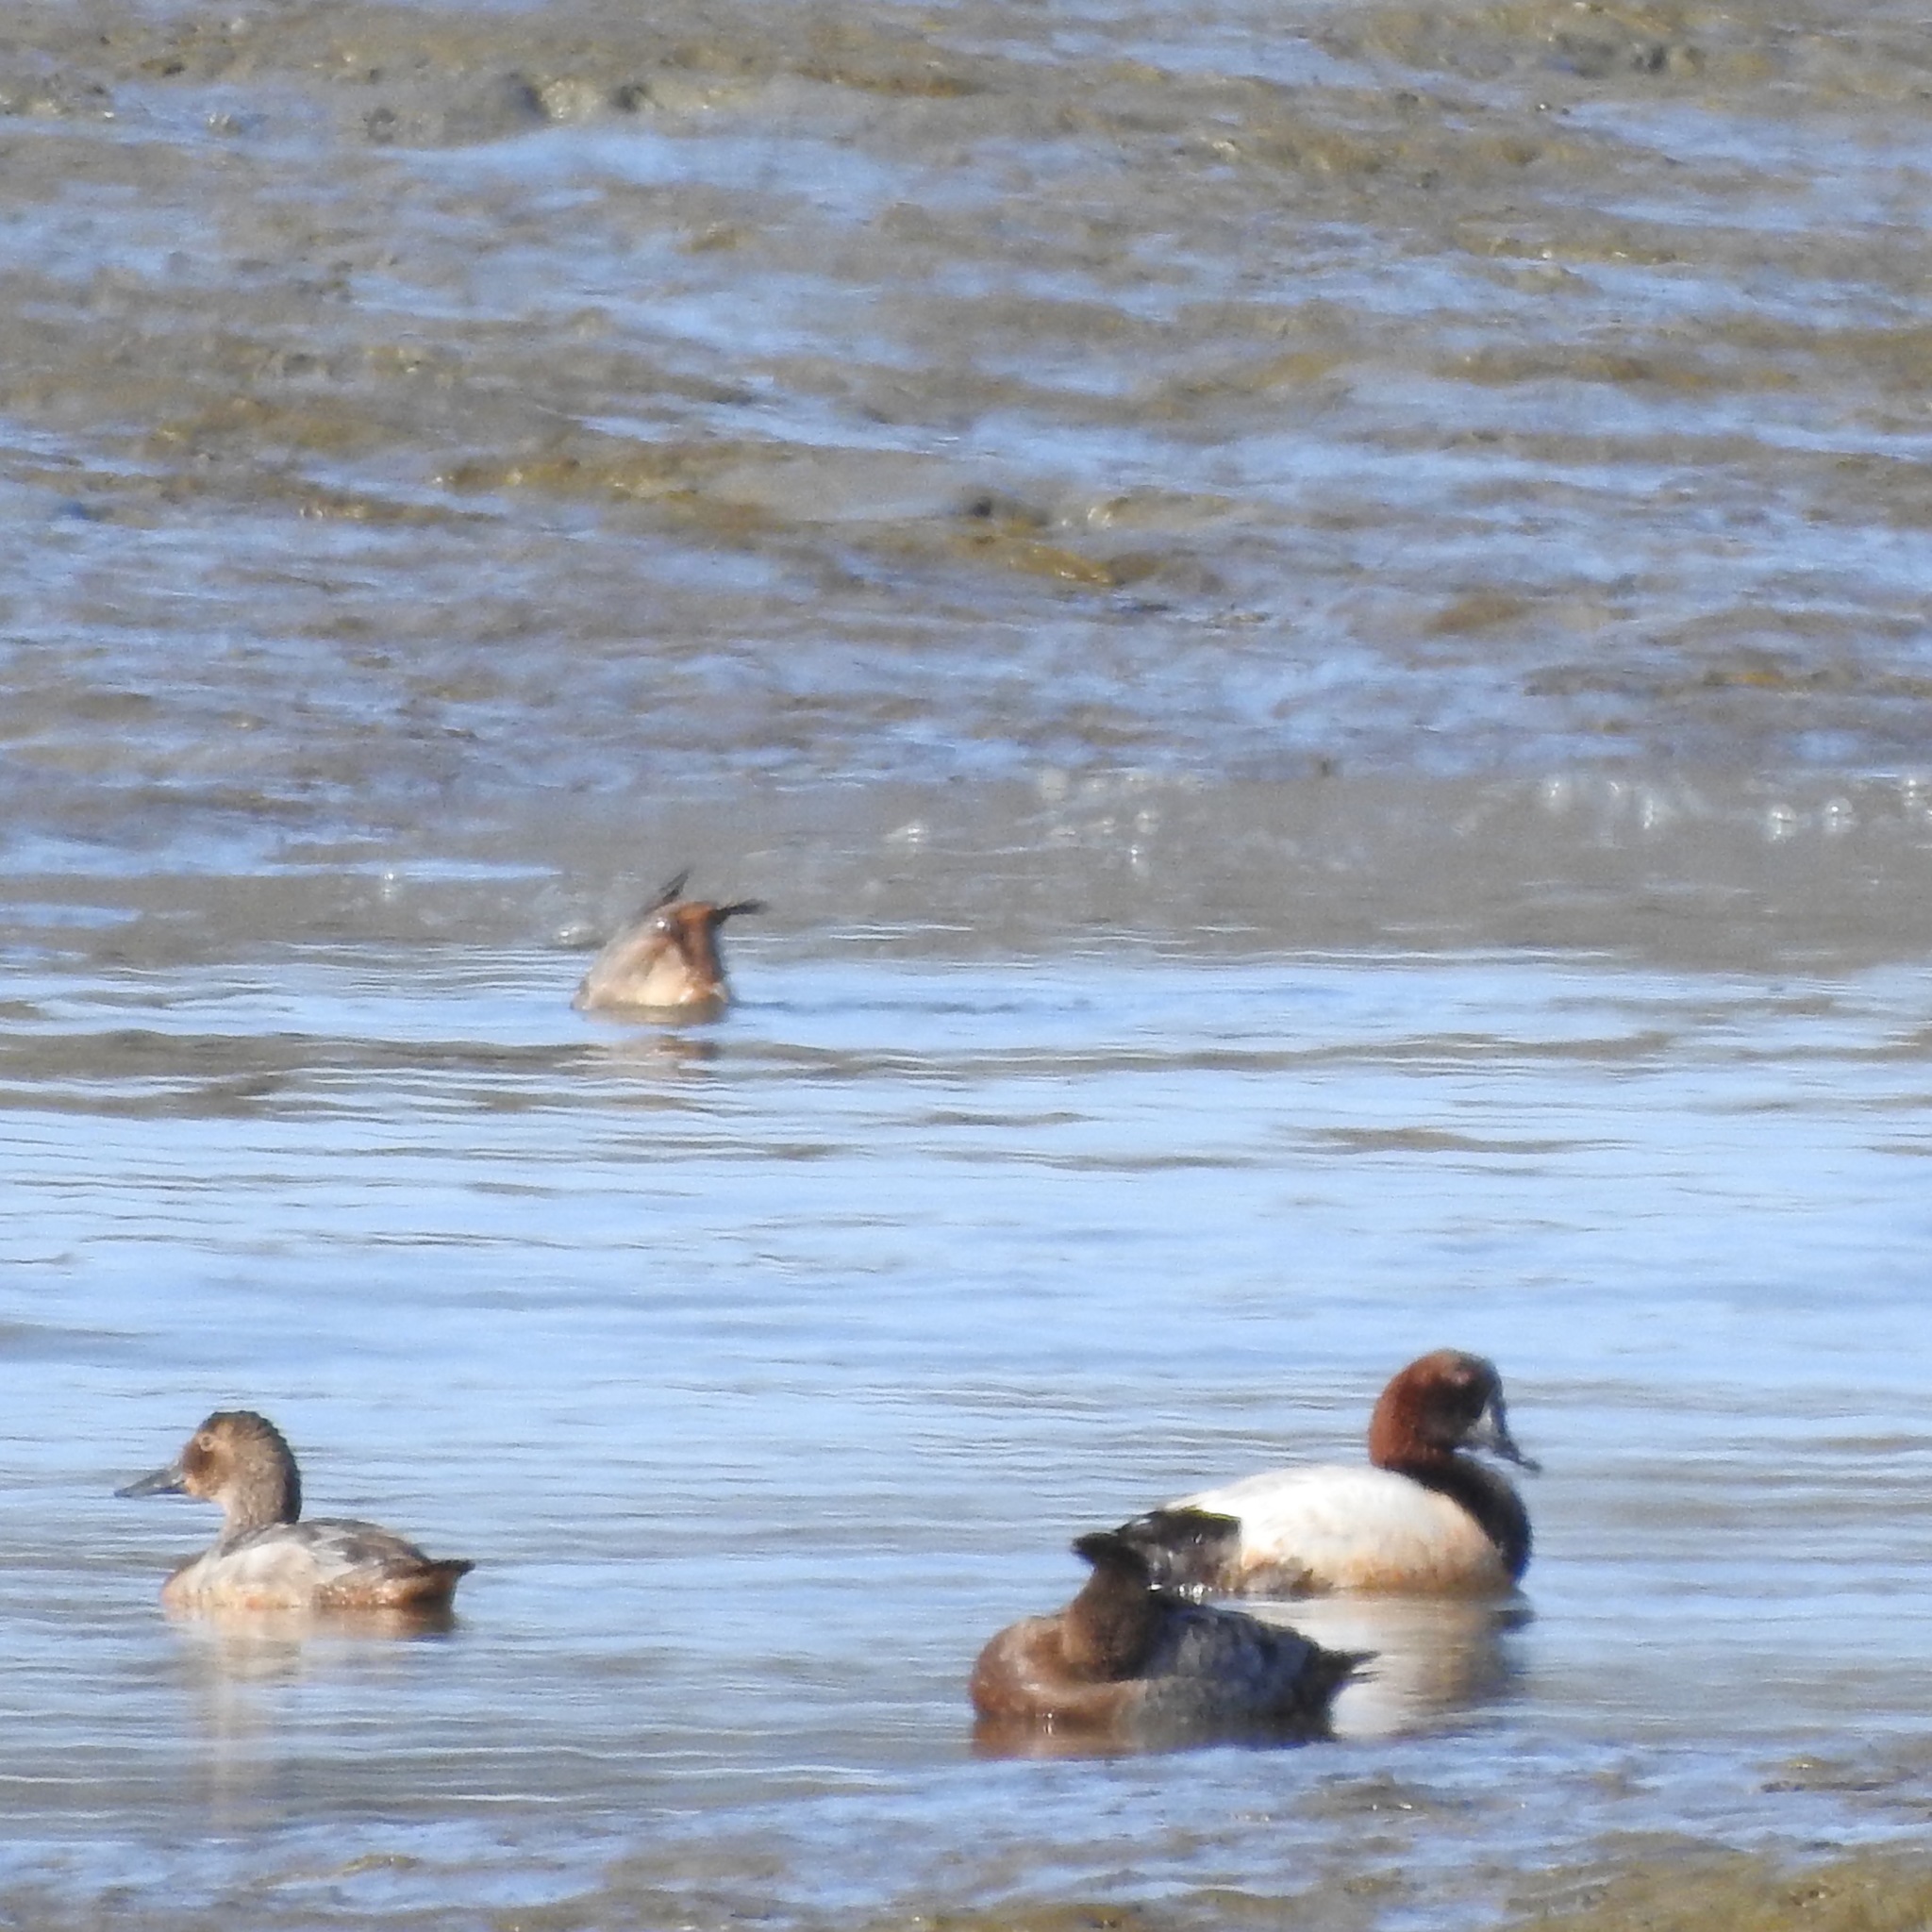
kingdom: Animalia
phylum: Chordata
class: Aves
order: Anseriformes
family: Anatidae
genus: Aythya
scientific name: Aythya valisineria
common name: Canvasback
